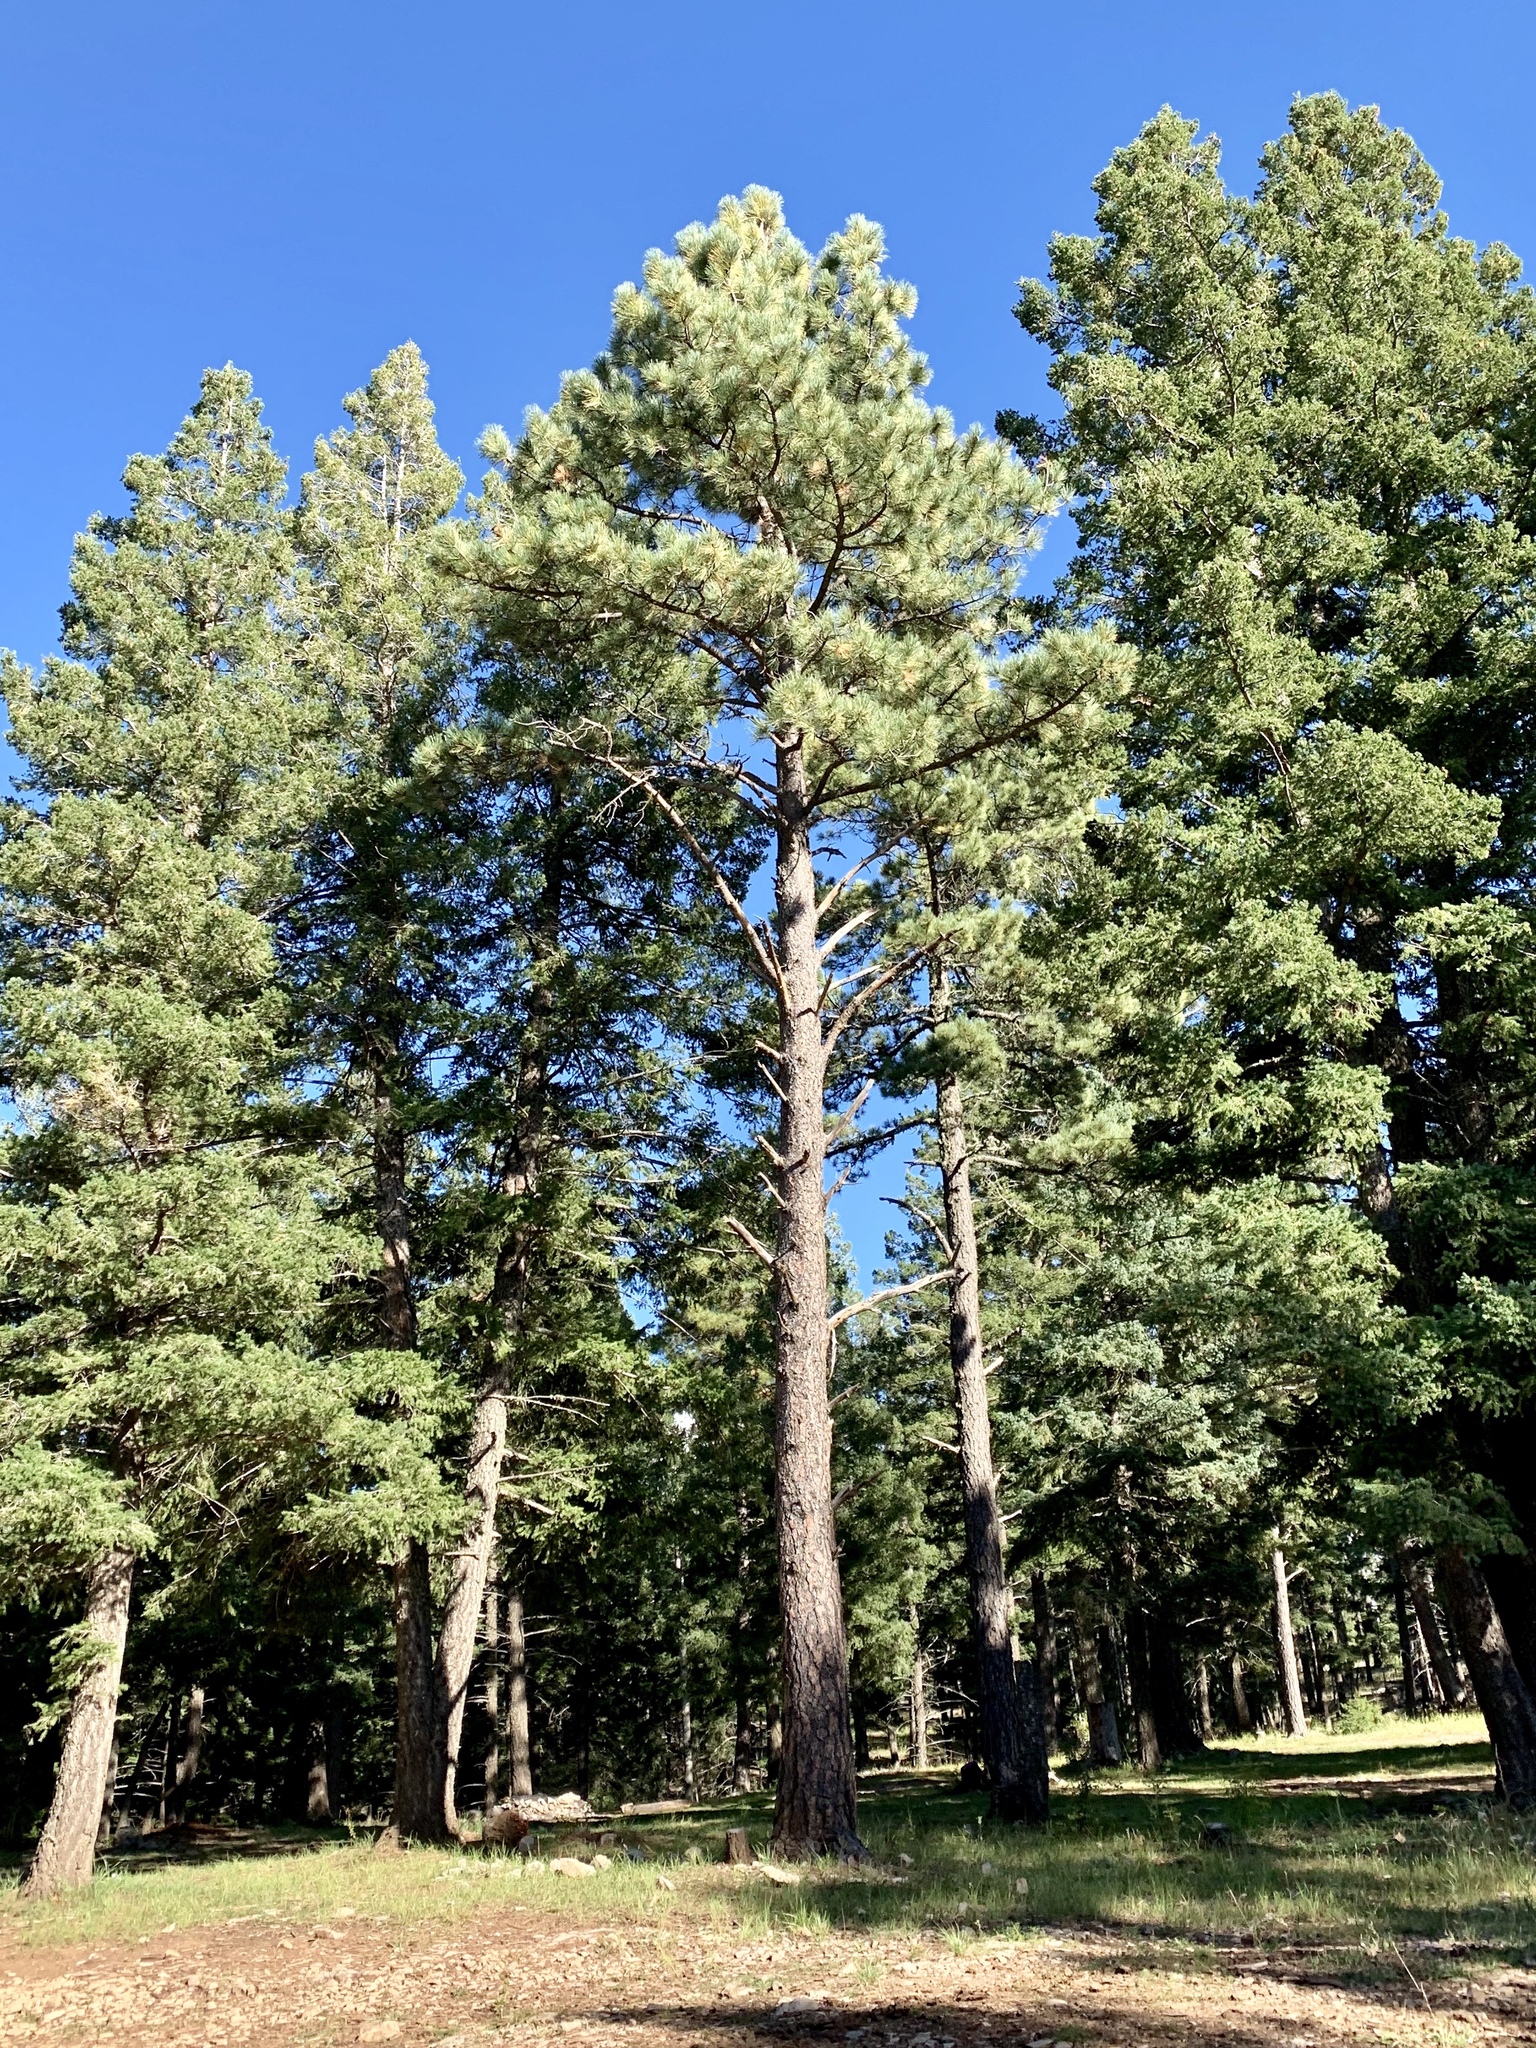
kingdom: Plantae
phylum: Tracheophyta
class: Pinopsida
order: Pinales
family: Pinaceae
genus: Pinus
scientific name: Pinus ponderosa
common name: Western yellow-pine
